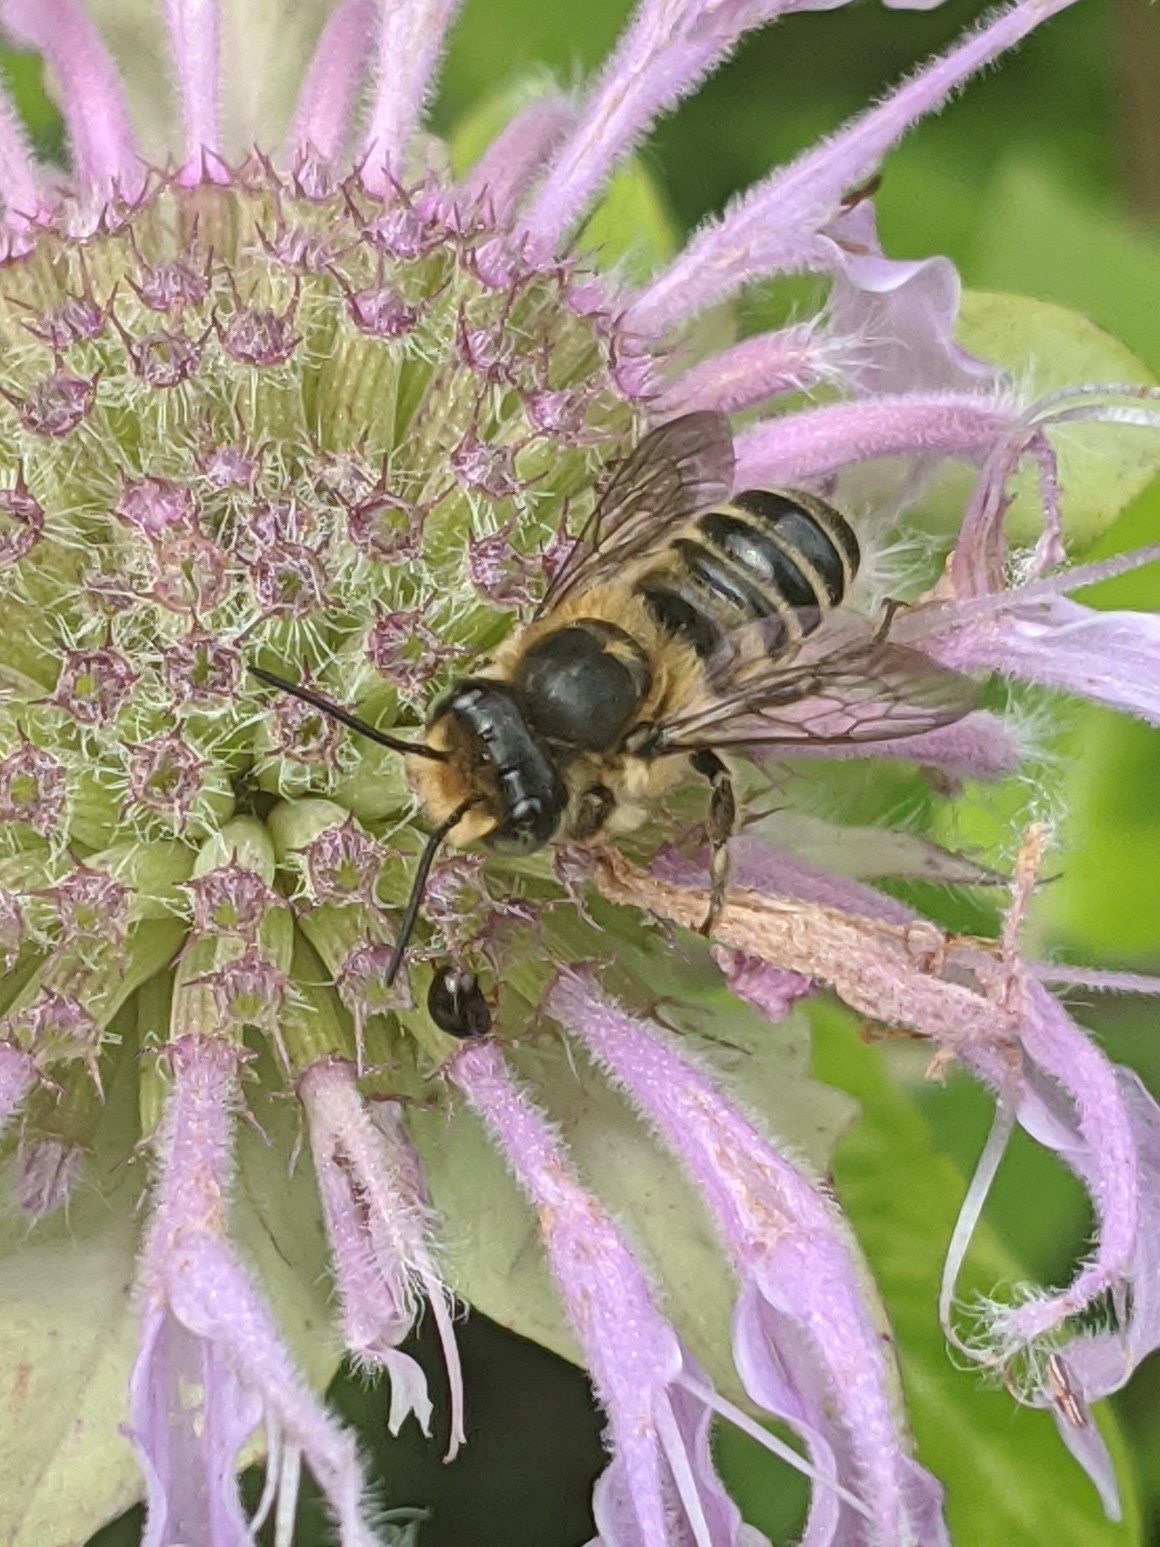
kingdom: Animalia
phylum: Arthropoda
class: Insecta
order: Hymenoptera
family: Megachilidae
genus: Megachile
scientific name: Megachile
